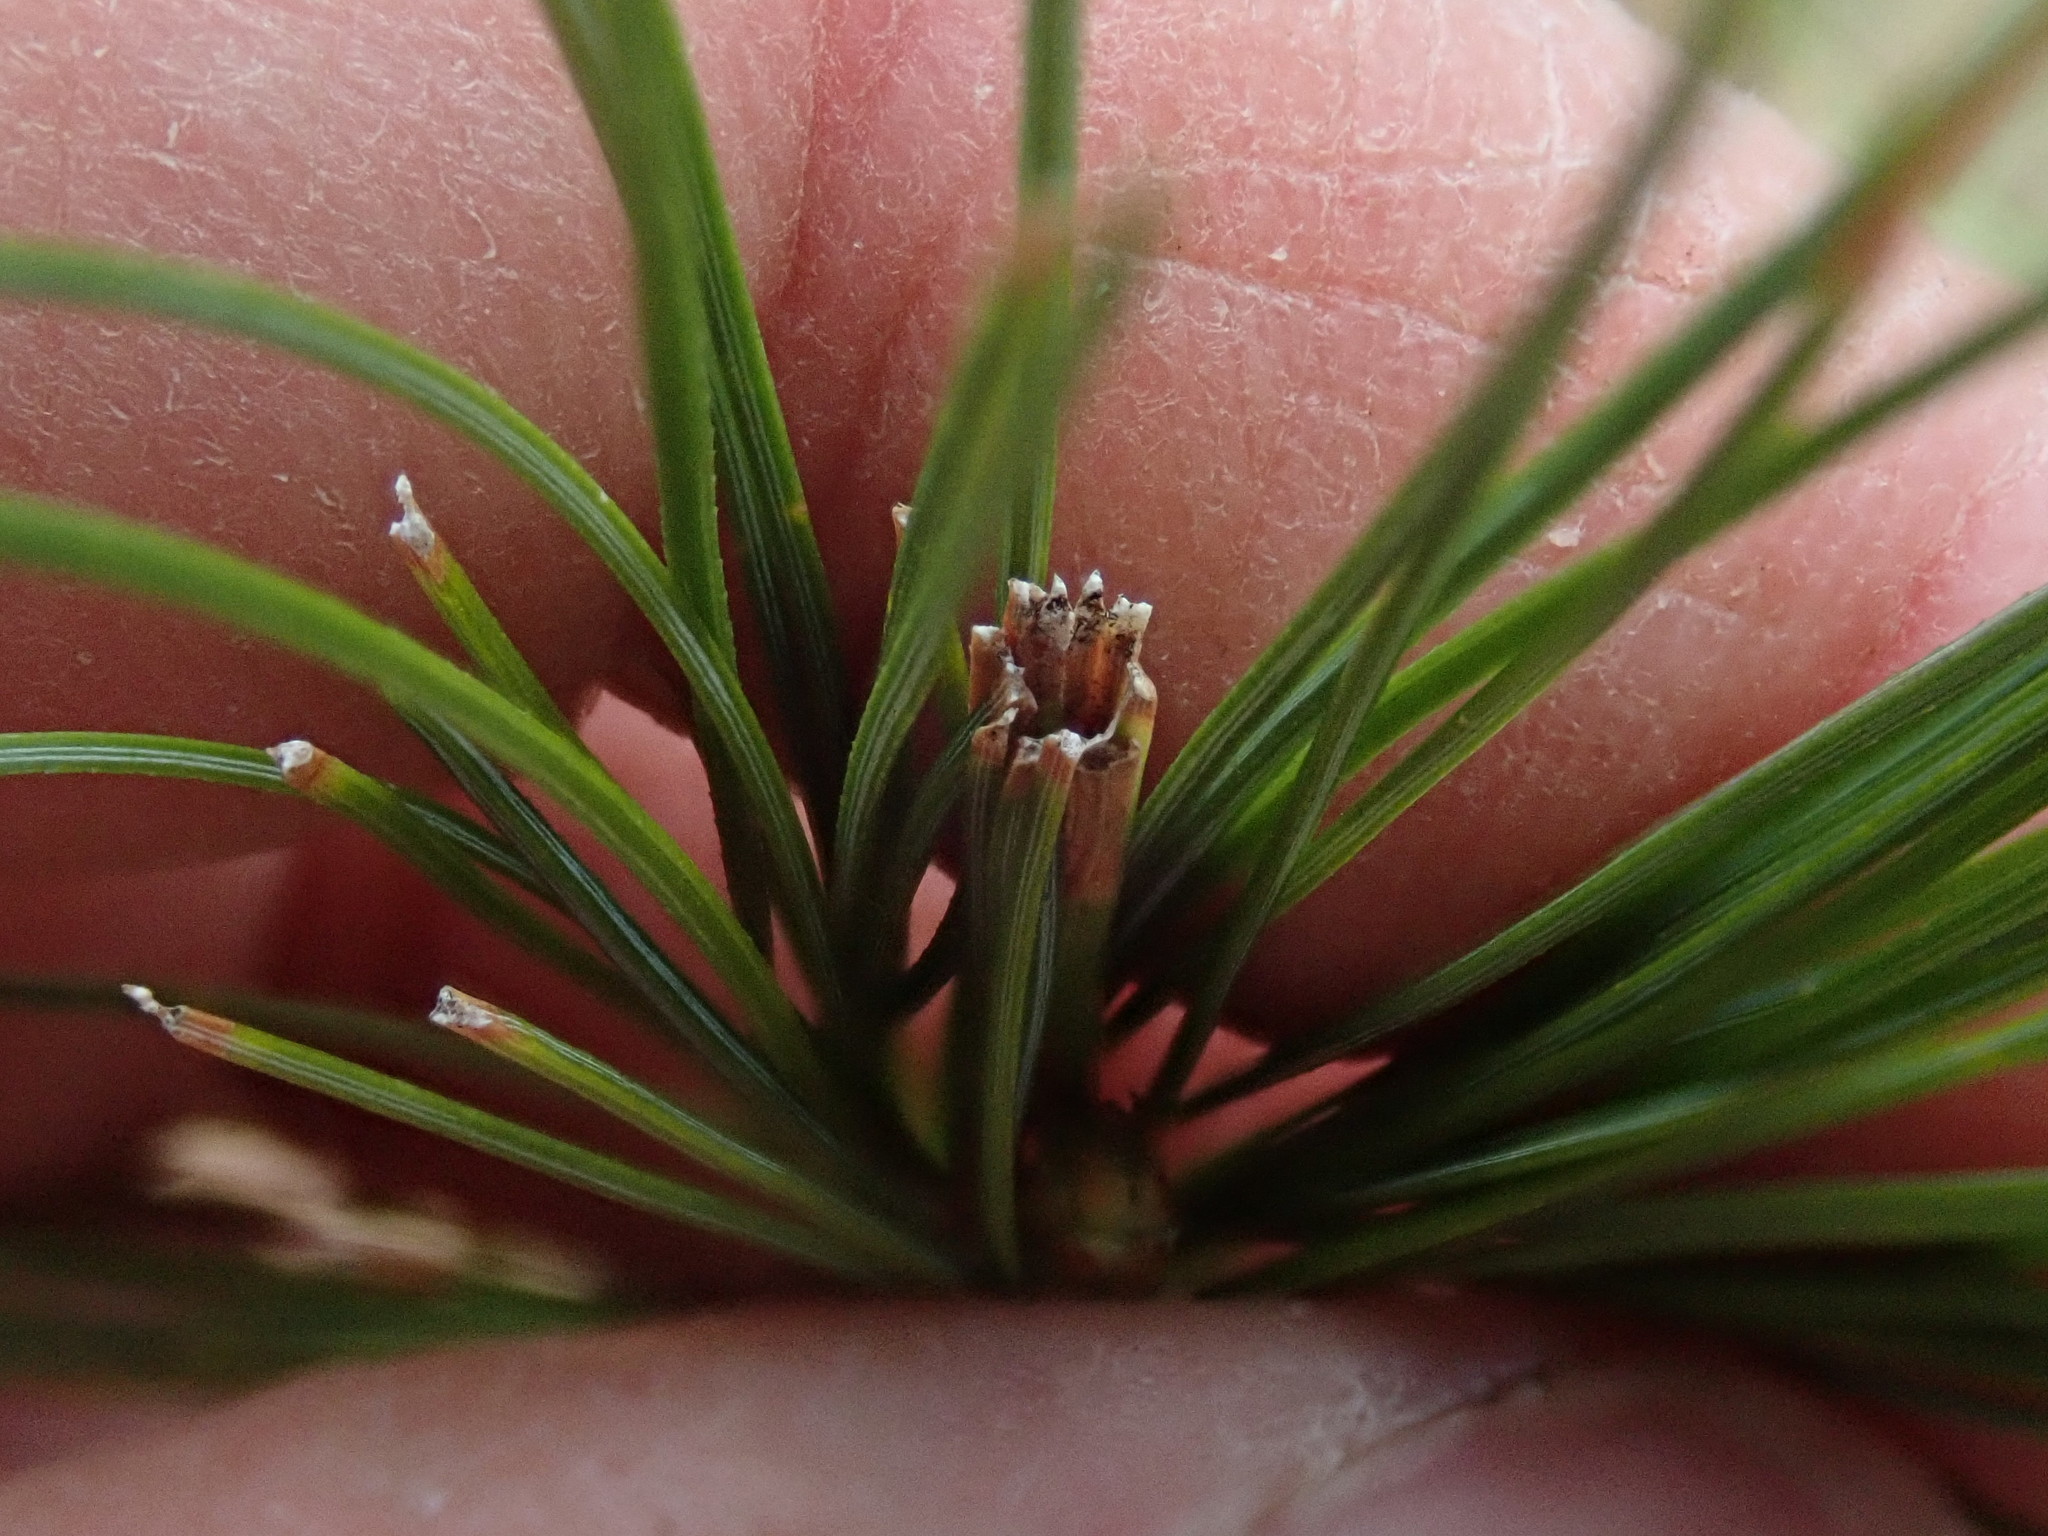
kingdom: Animalia
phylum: Arthropoda
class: Insecta
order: Lepidoptera
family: Tortricidae
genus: Argyrotaenia
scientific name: Argyrotaenia pinatubana
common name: Pine tube moth
